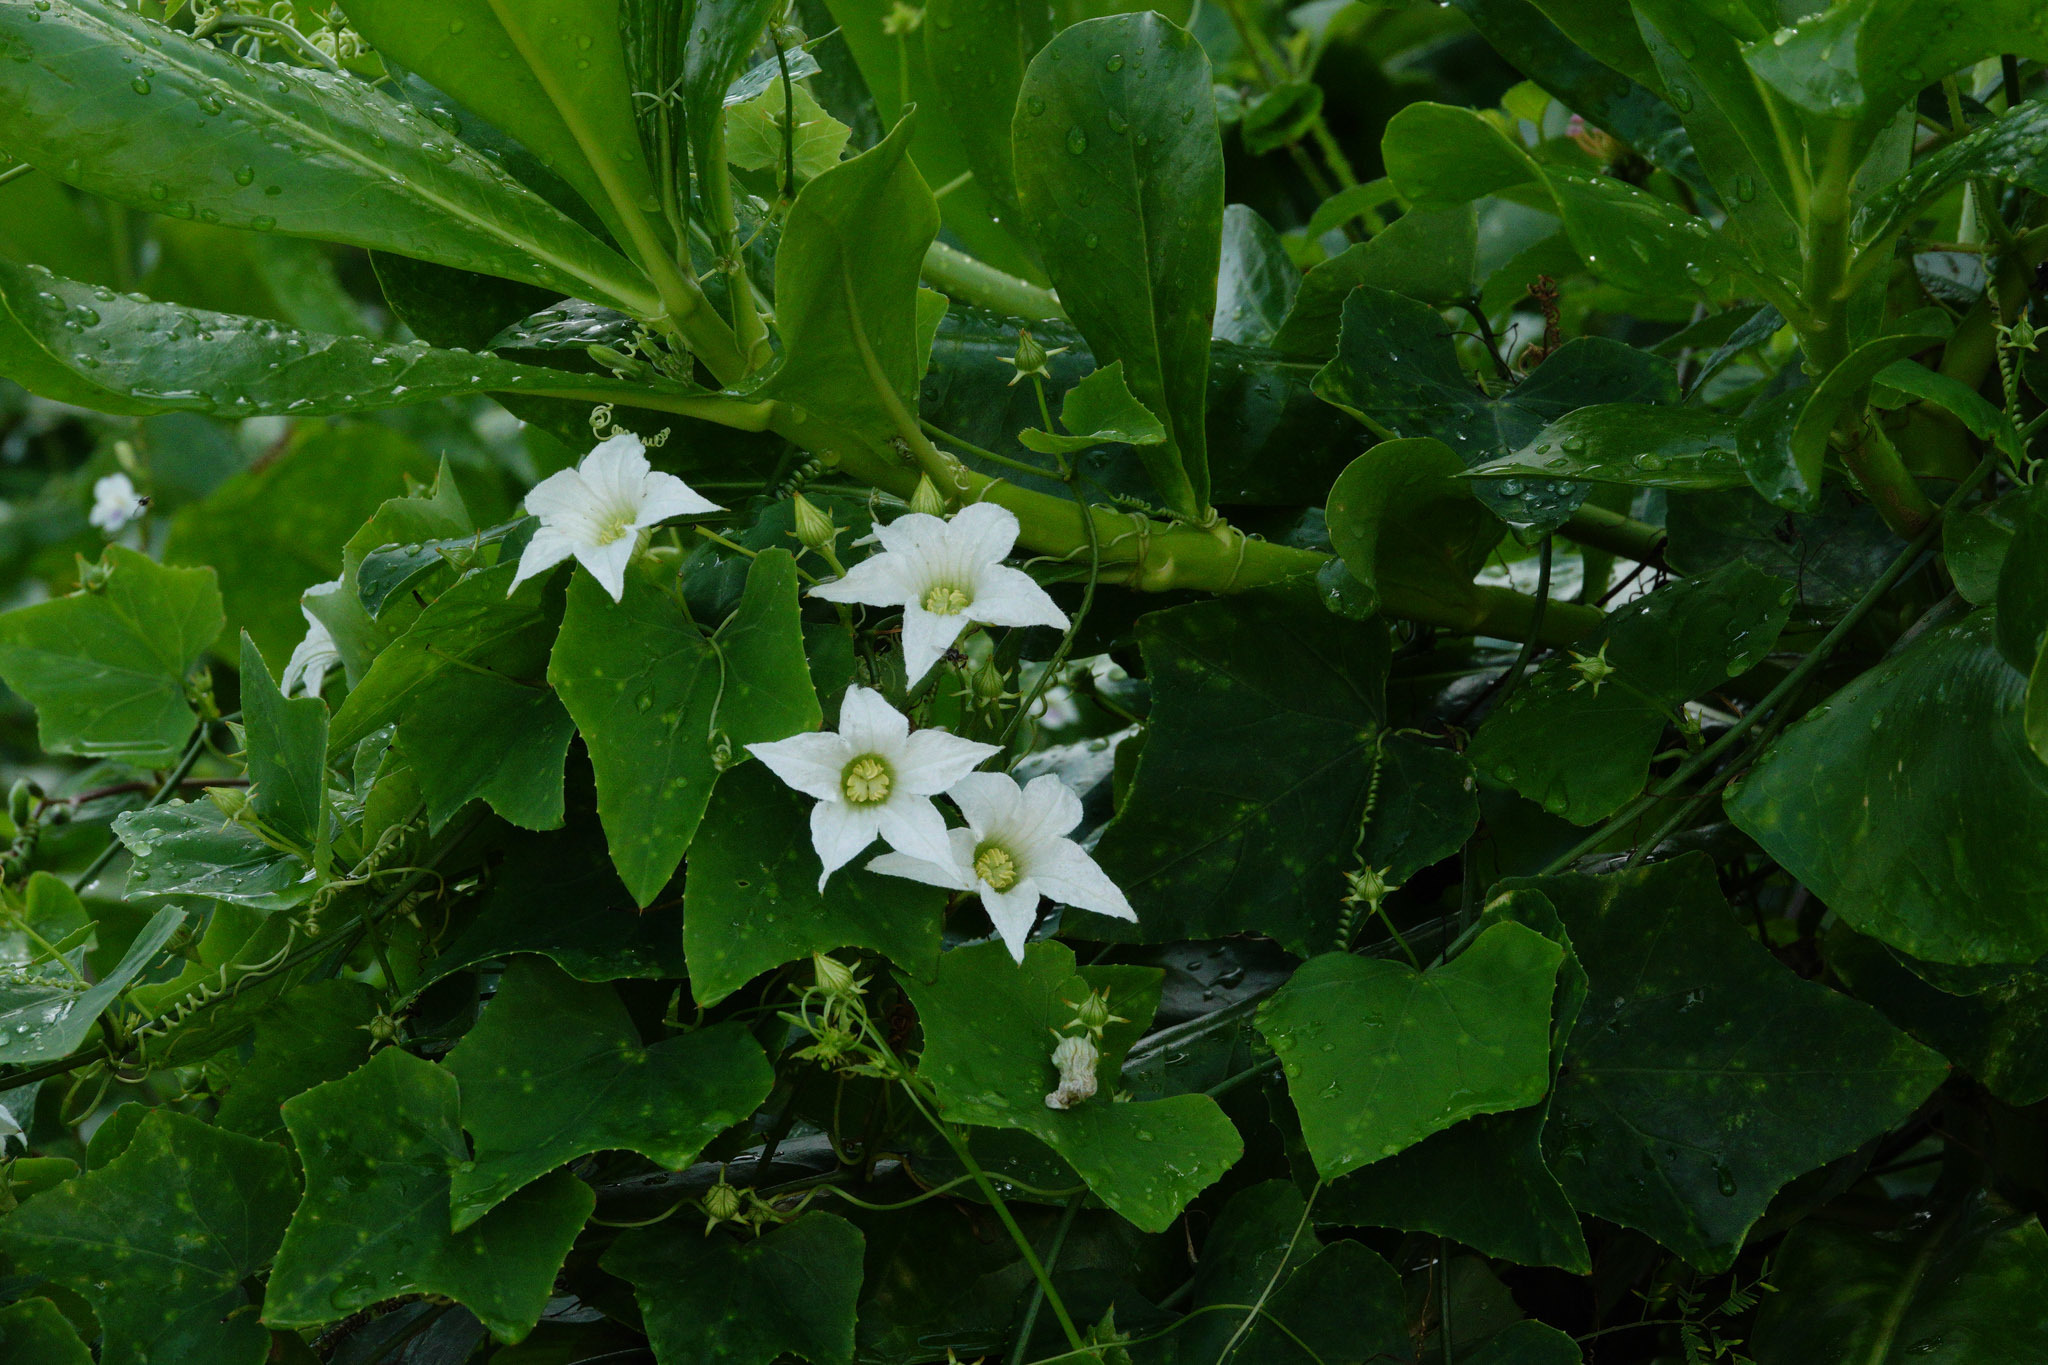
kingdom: Plantae
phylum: Tracheophyta
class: Magnoliopsida
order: Cucurbitales
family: Cucurbitaceae
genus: Coccinia
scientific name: Coccinia grandis
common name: Ivy gourd
